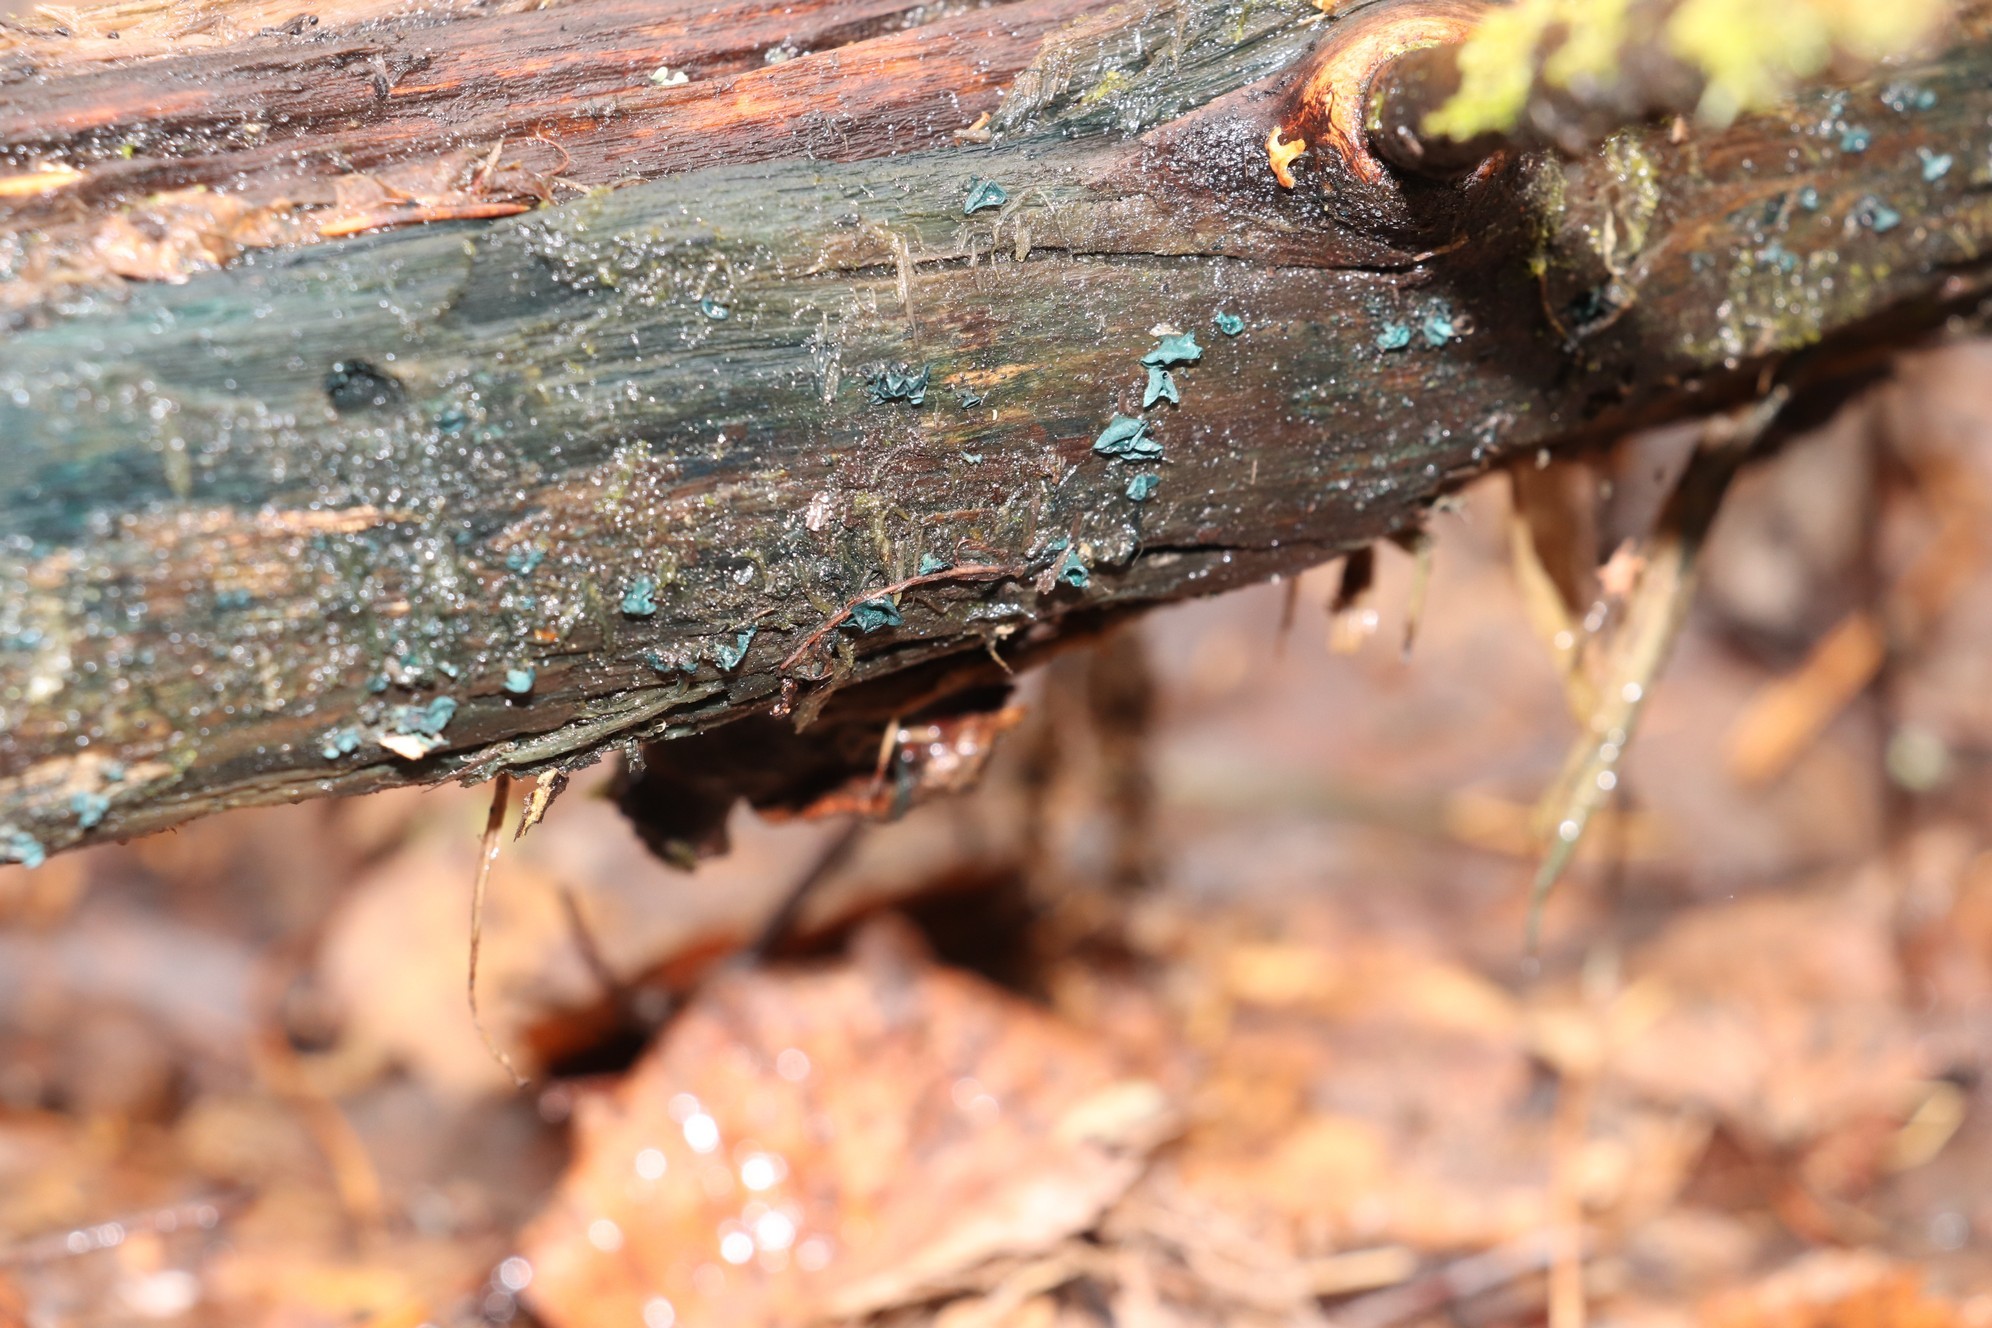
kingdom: Fungi
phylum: Ascomycota
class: Leotiomycetes
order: Helotiales
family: Chlorociboriaceae
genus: Chlorociboria
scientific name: Chlorociboria aeruginascens
